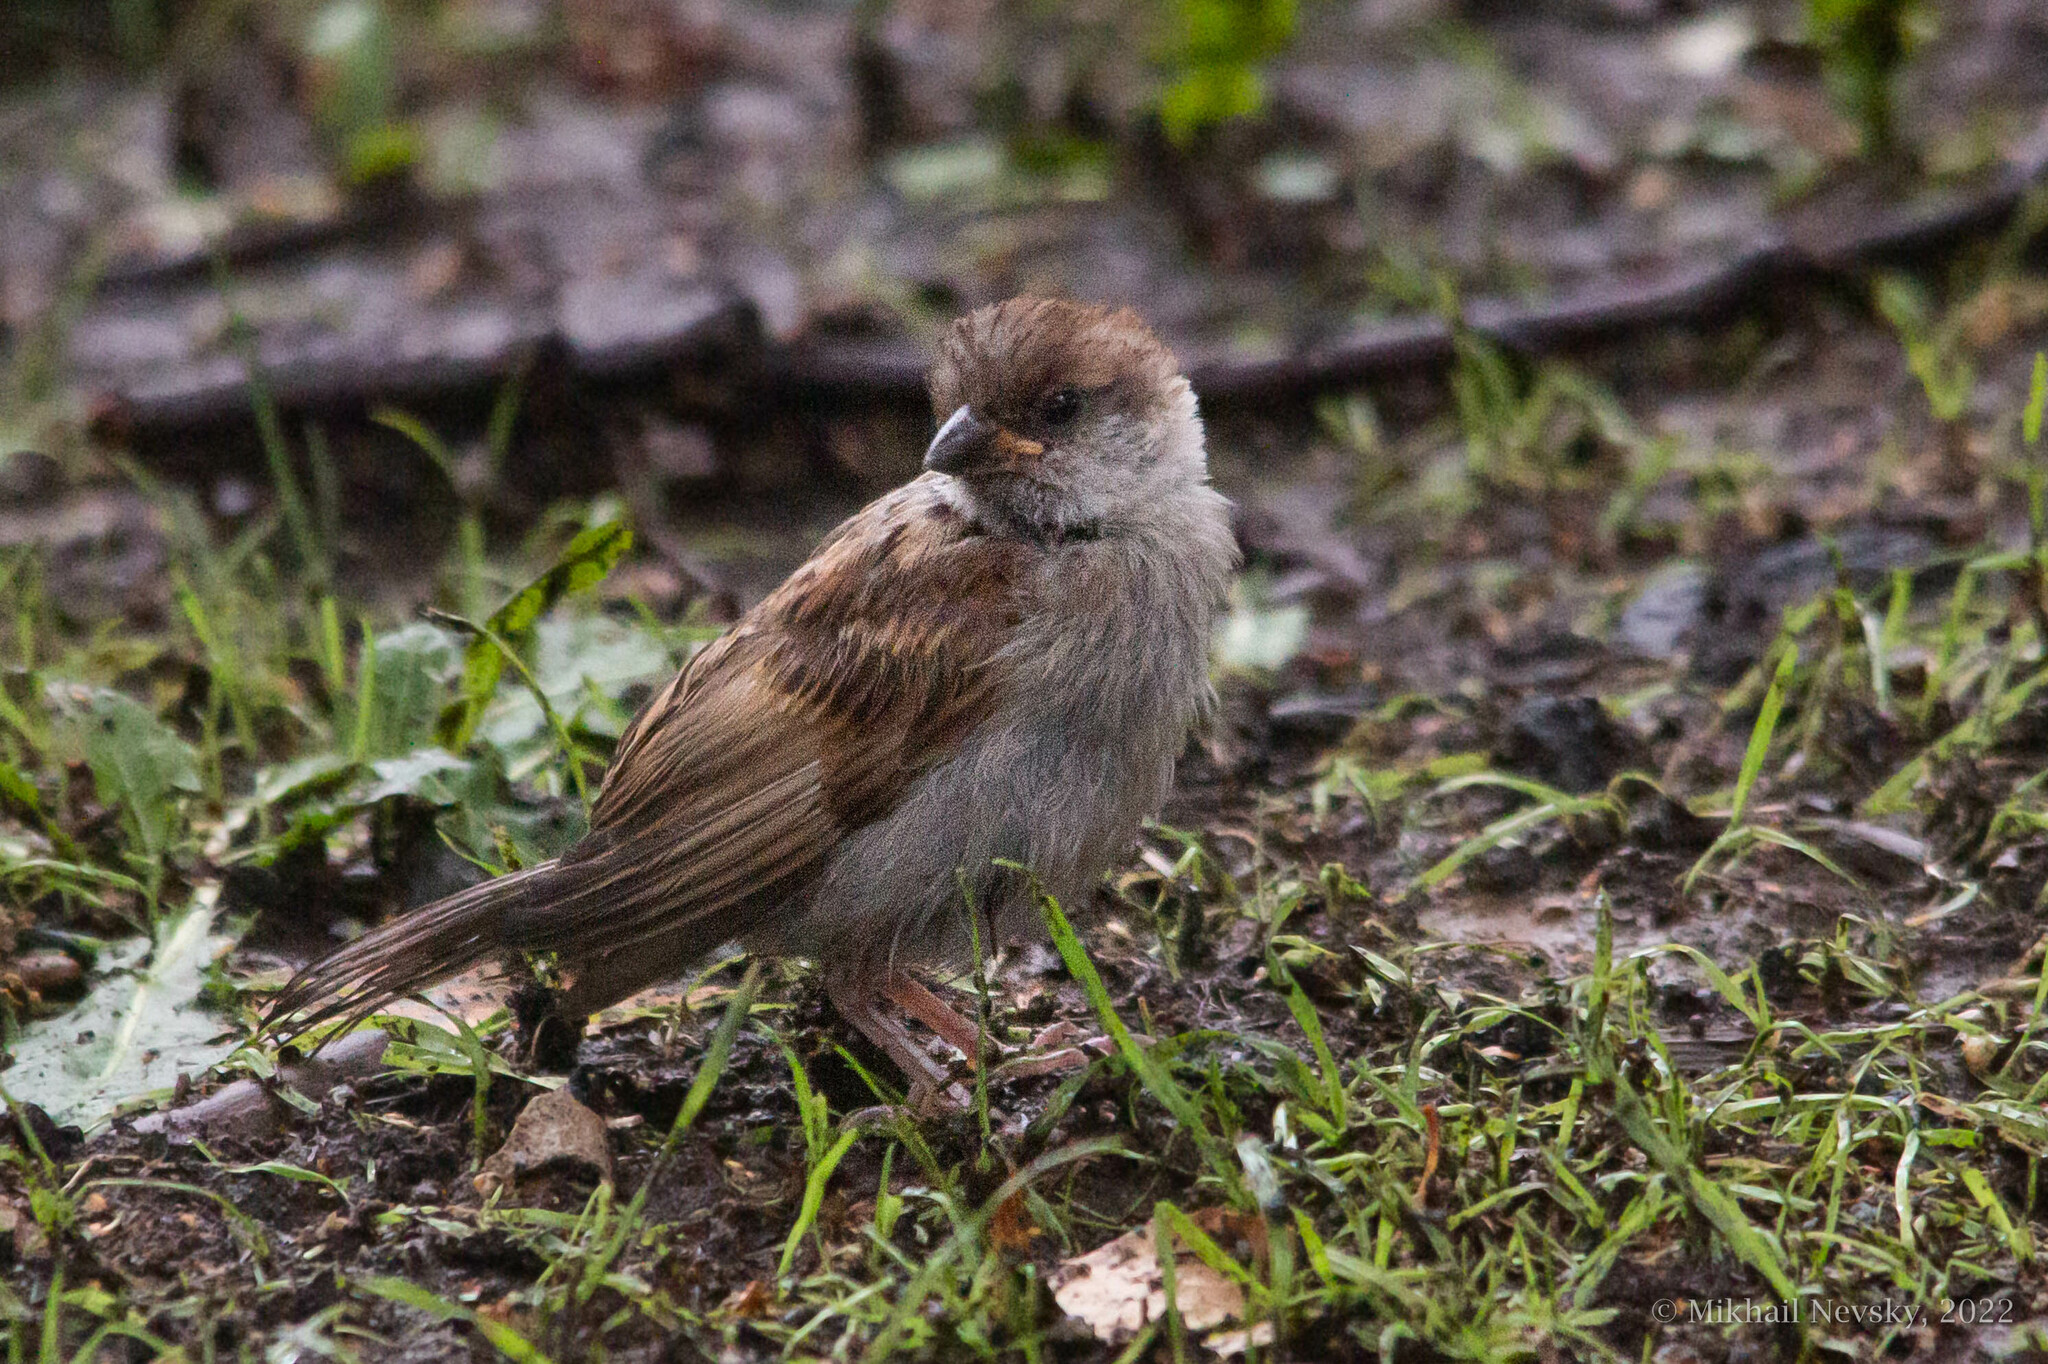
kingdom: Animalia
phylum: Chordata
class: Aves
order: Passeriformes
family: Passeridae
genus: Passer
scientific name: Passer cinnamomeus
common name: Russet sparrow
